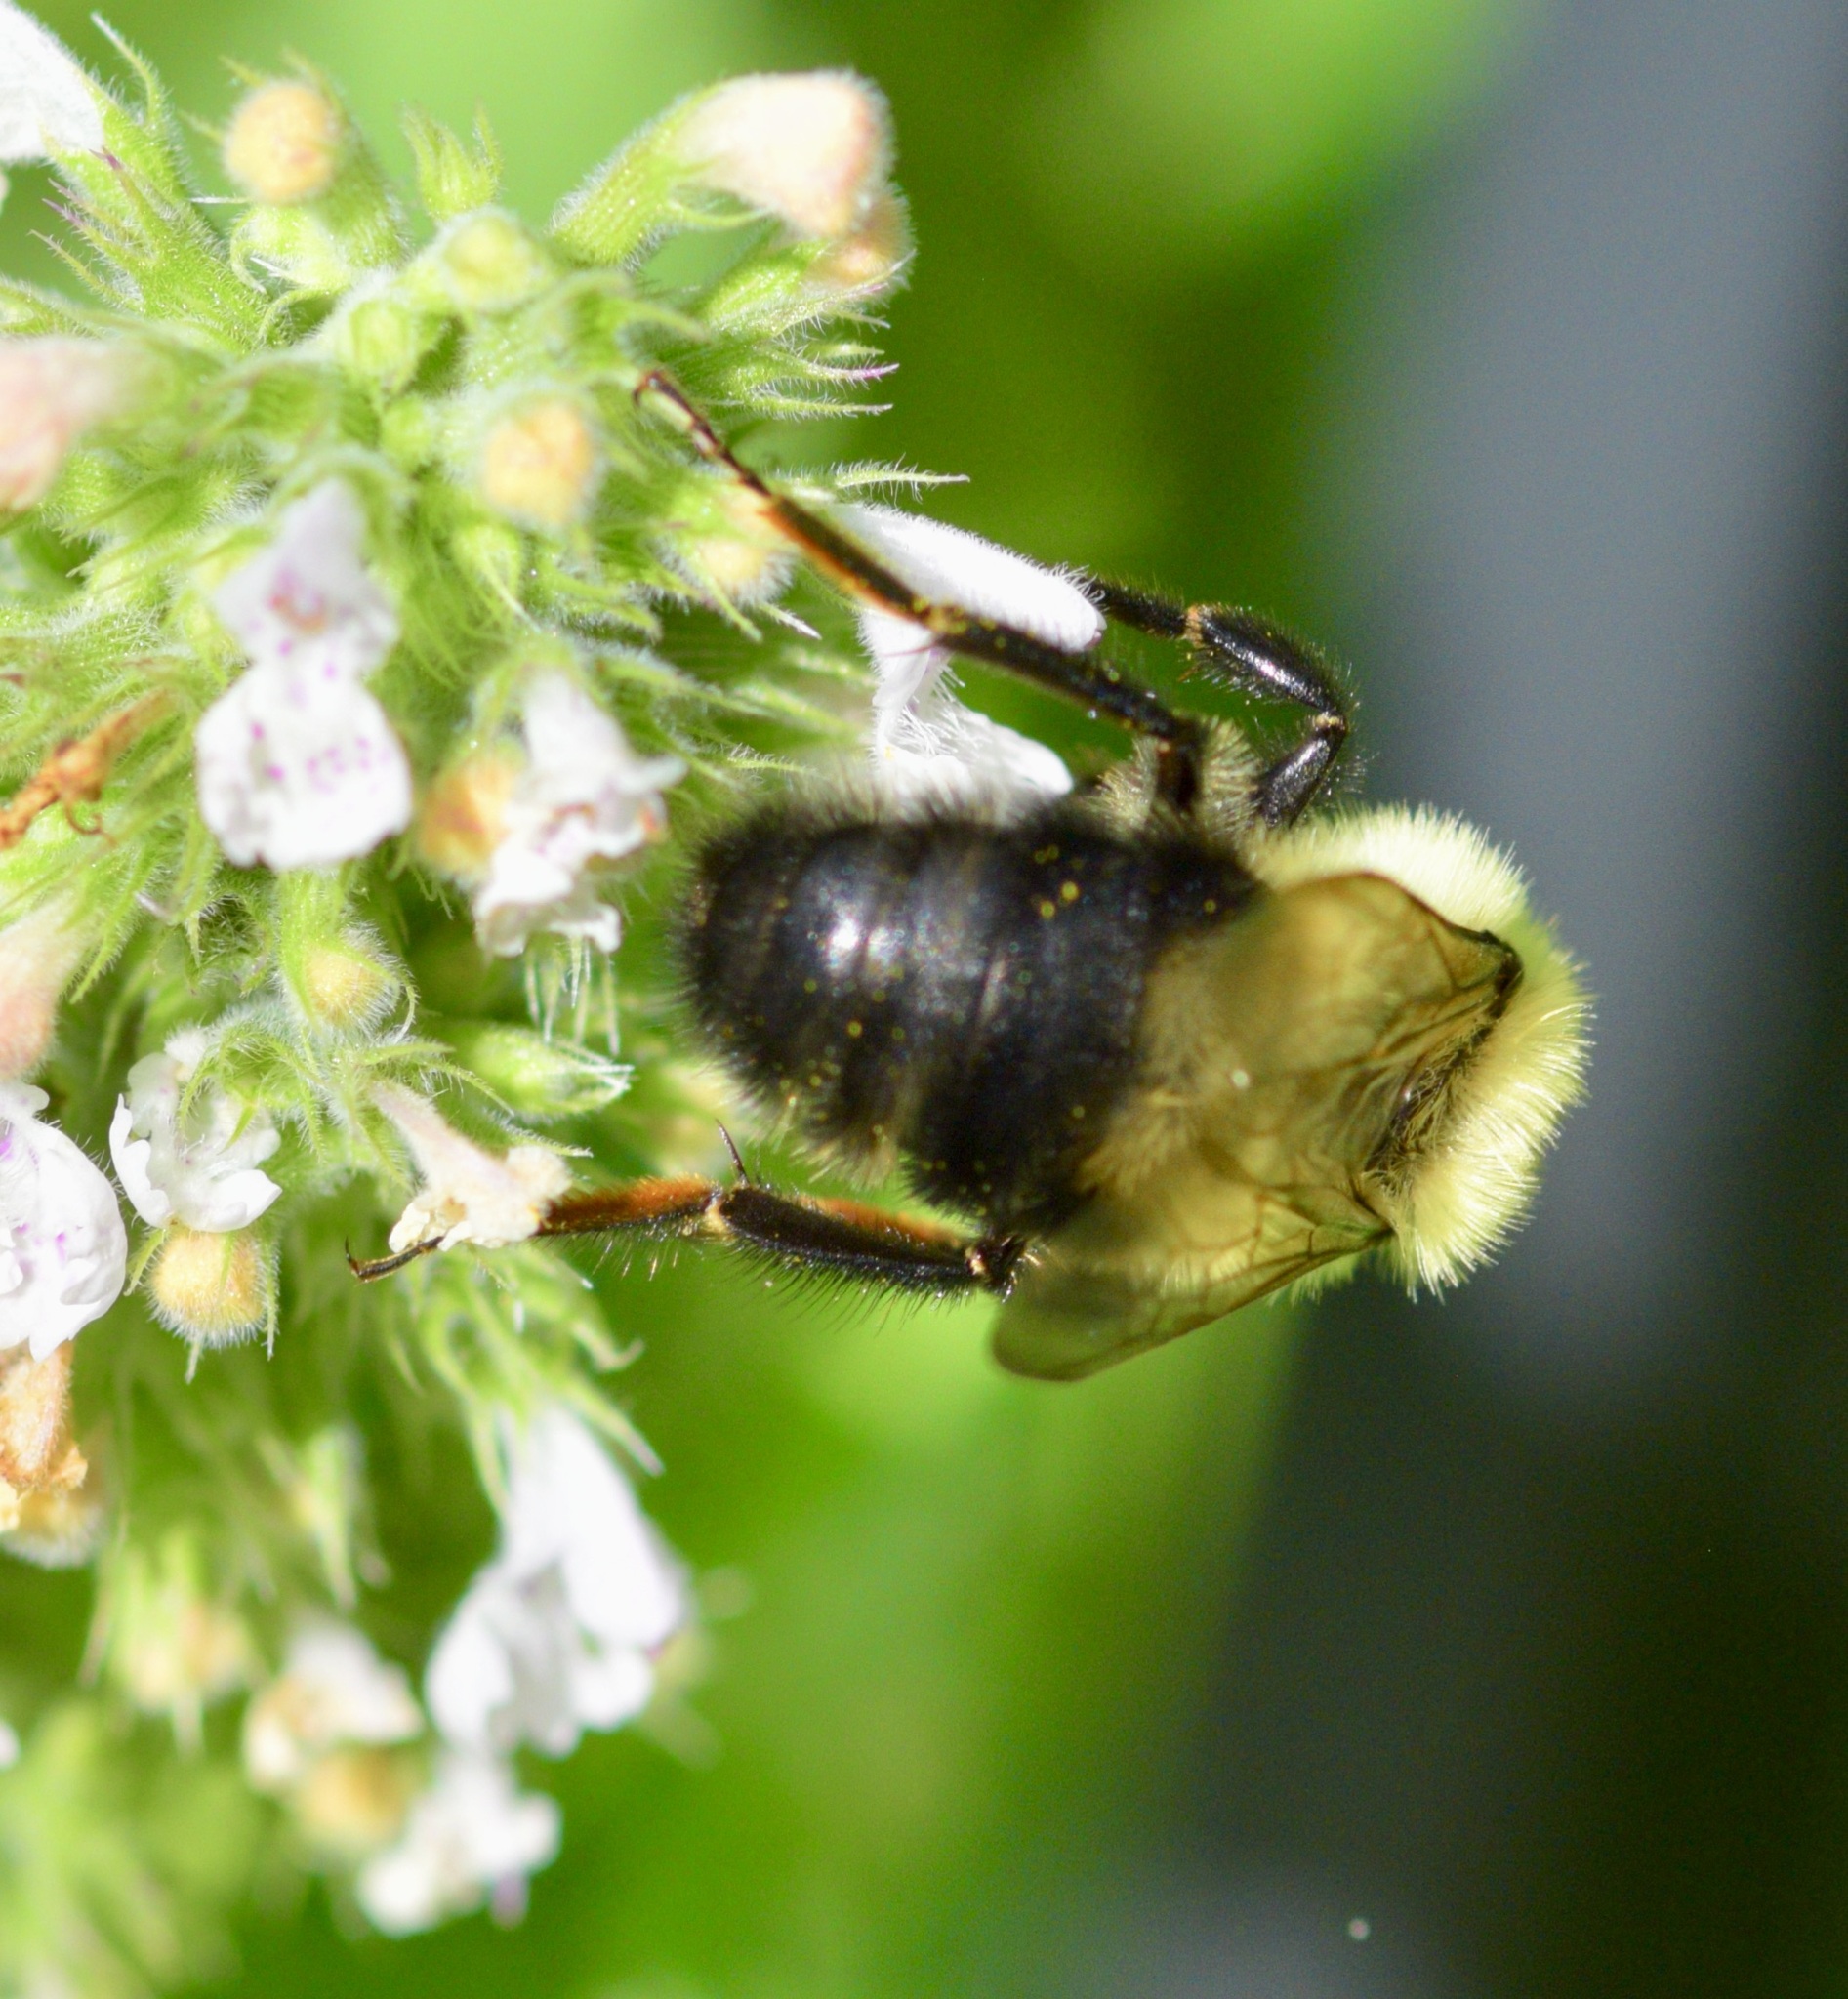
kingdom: Animalia
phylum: Arthropoda
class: Insecta
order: Hymenoptera
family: Apidae
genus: Bombus
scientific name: Bombus bimaculatus
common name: Two-spotted bumble bee
